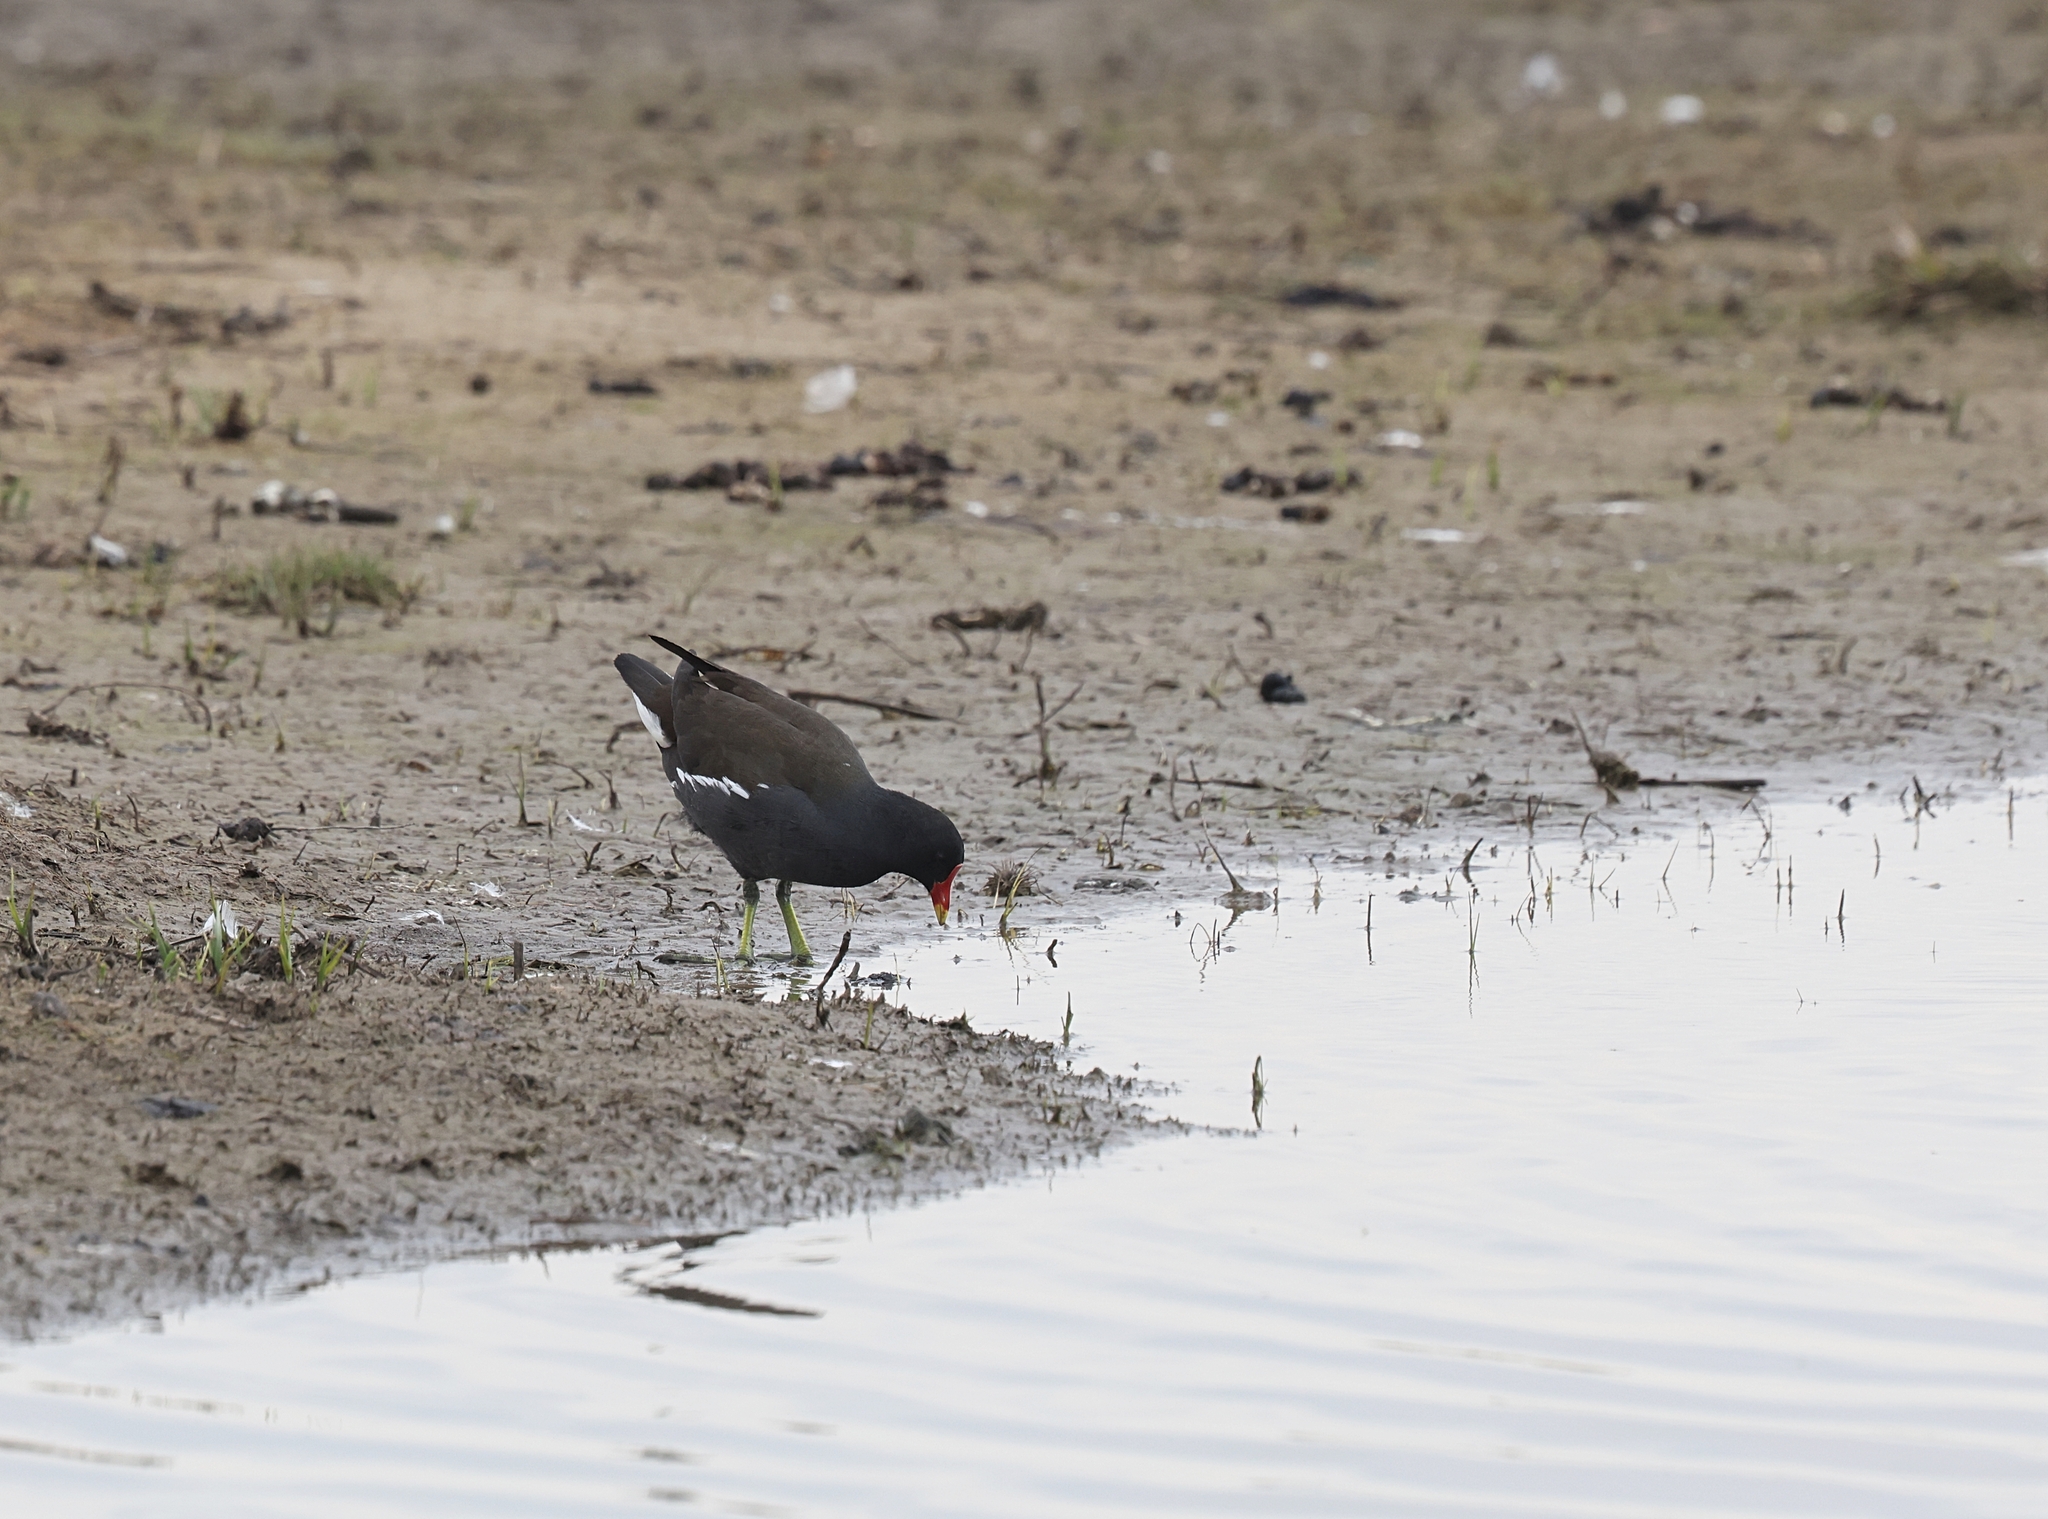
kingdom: Animalia
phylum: Chordata
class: Aves
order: Gruiformes
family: Rallidae
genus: Gallinula
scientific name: Gallinula chloropus
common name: Common moorhen
